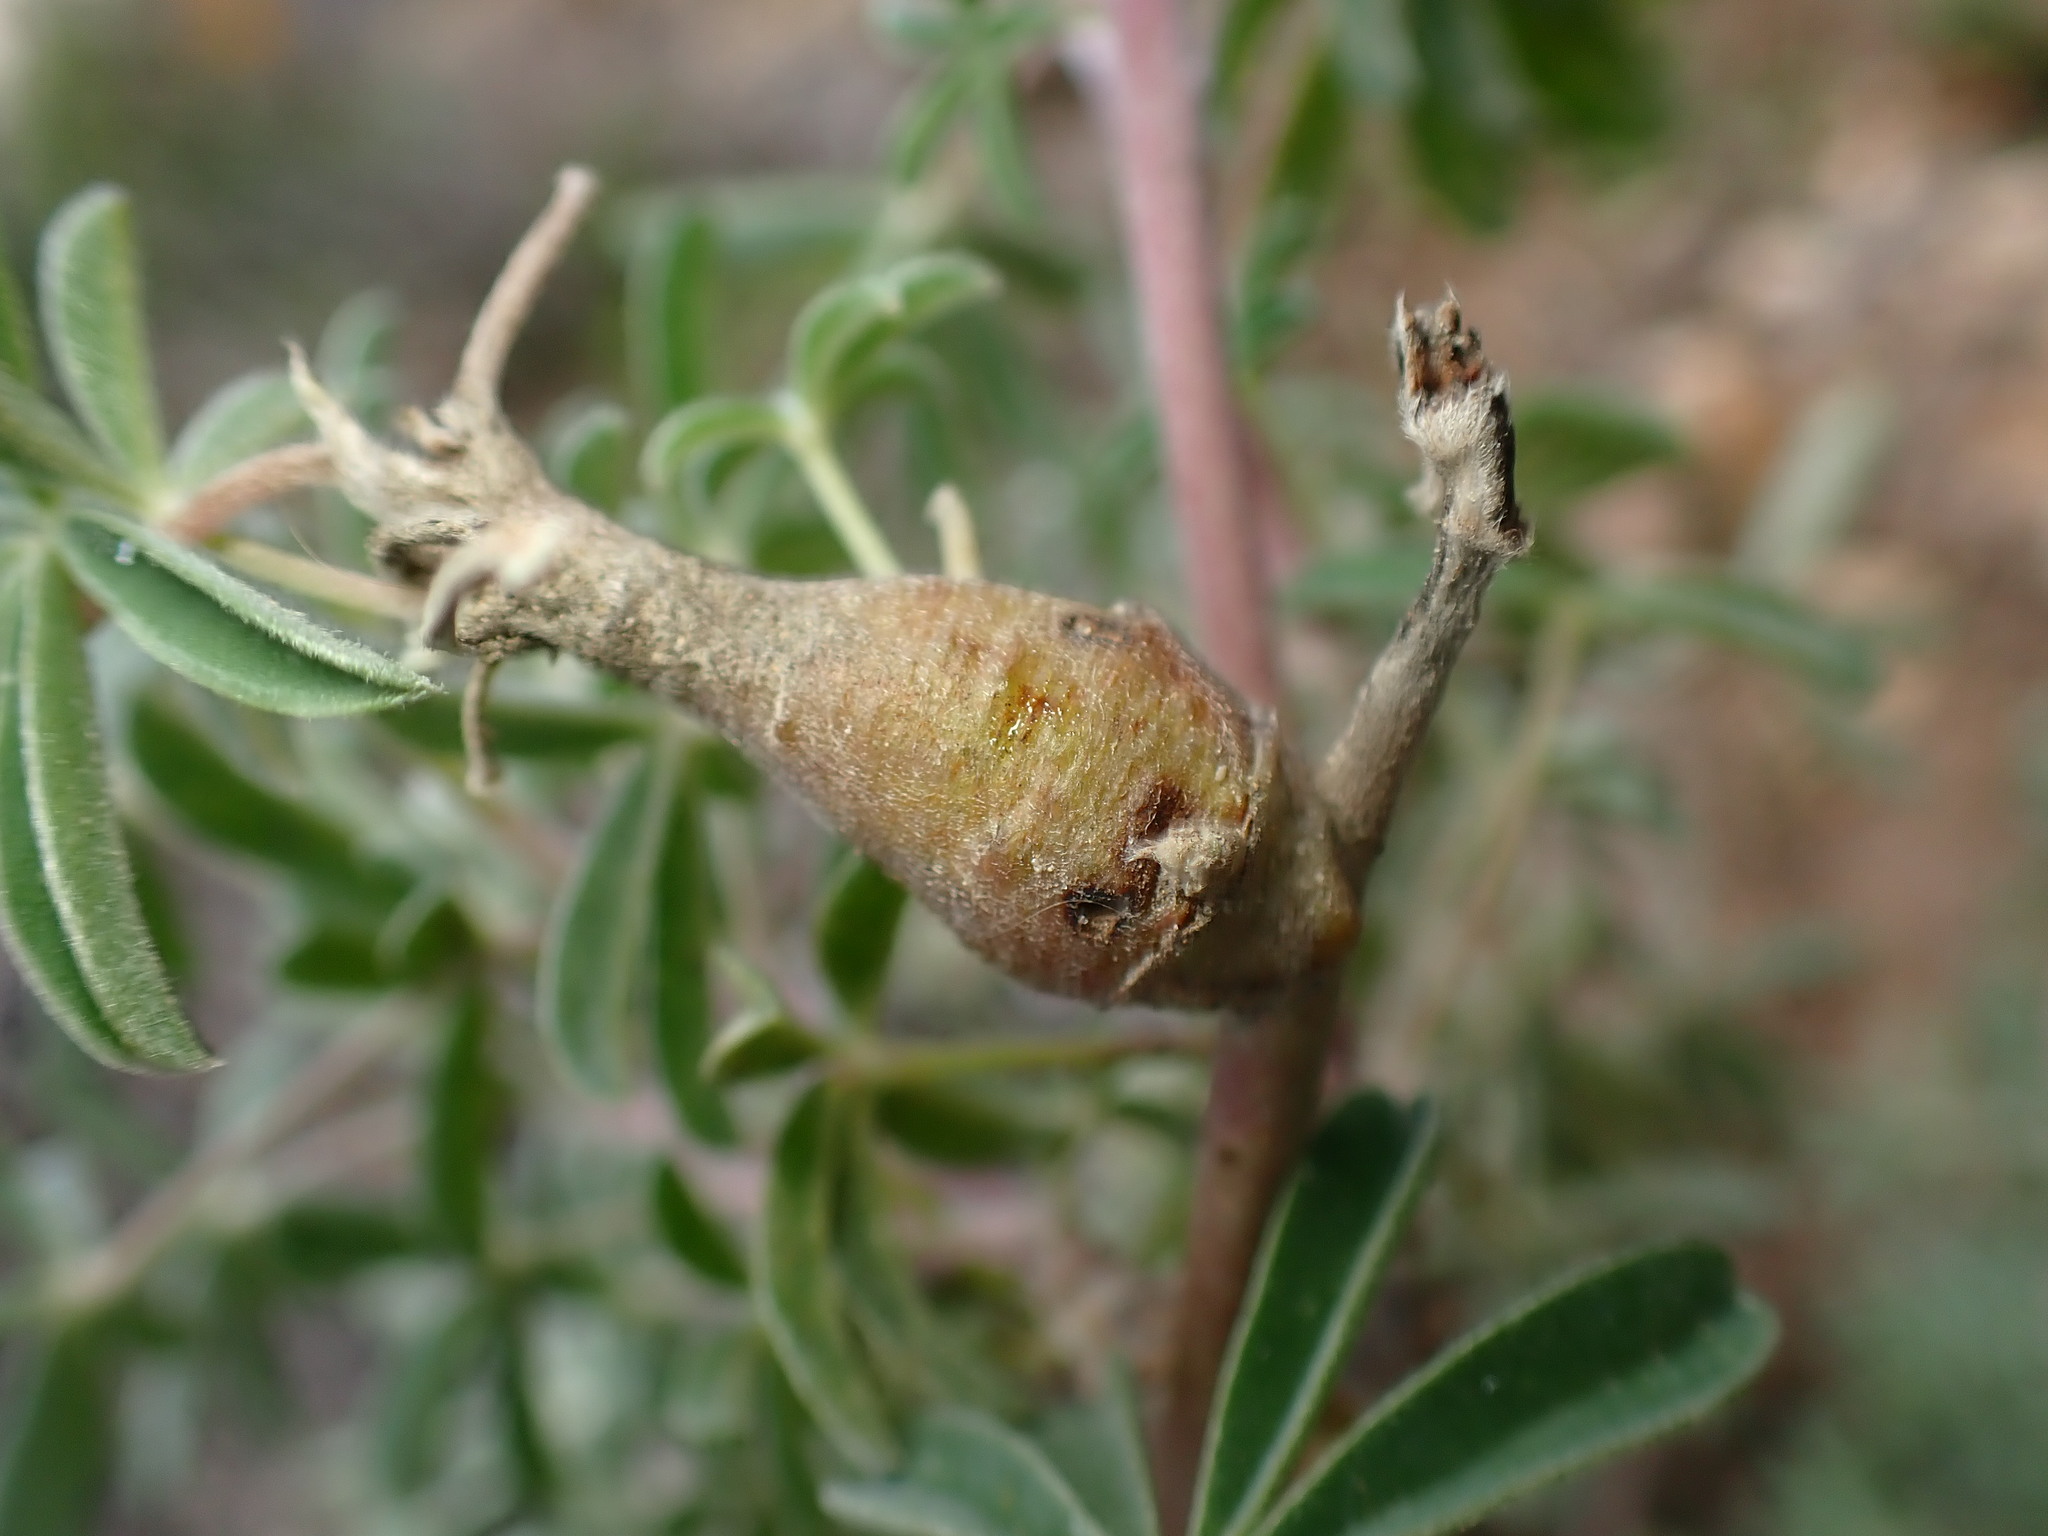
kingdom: Animalia
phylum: Arthropoda
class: Insecta
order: Diptera
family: Cecidomyiidae
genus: Neolasioptera
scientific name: Neolasioptera lupini
